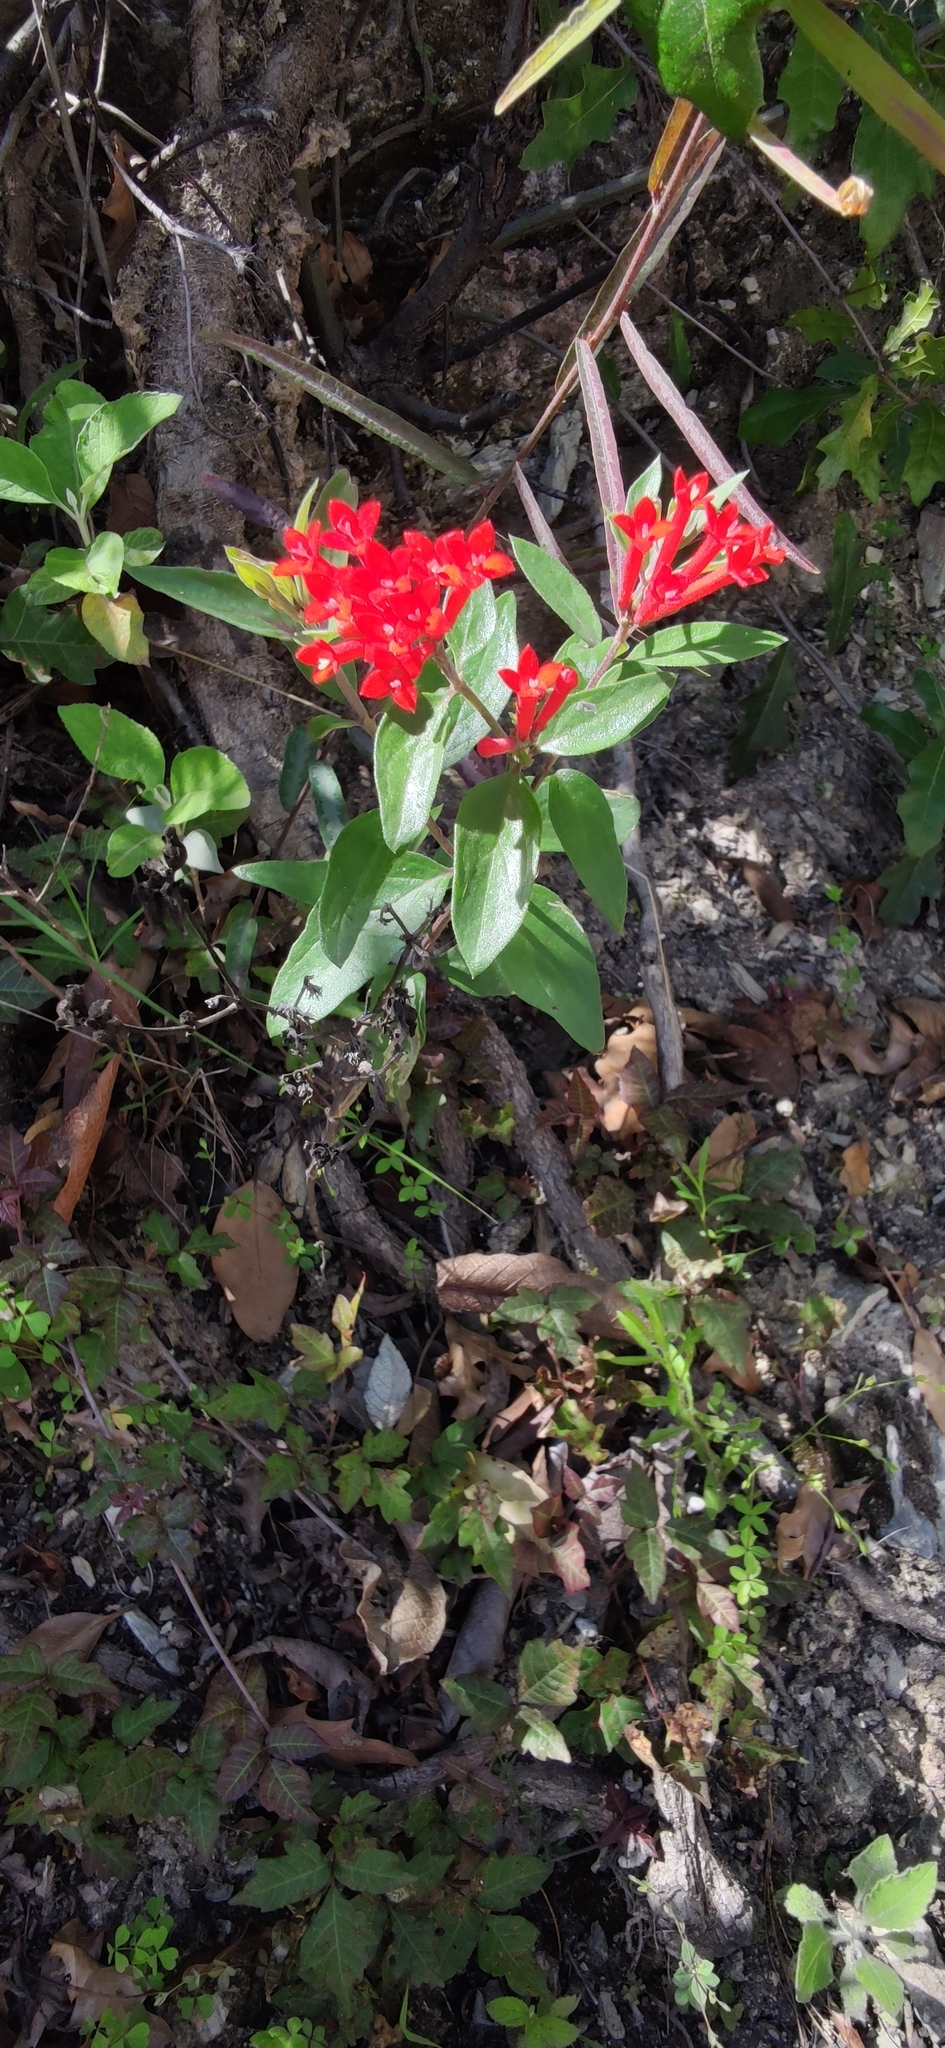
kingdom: Plantae
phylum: Tracheophyta
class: Magnoliopsida
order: Gentianales
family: Rubiaceae
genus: Bouvardia
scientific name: Bouvardia ternifolia
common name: Scarlet bouvardia
